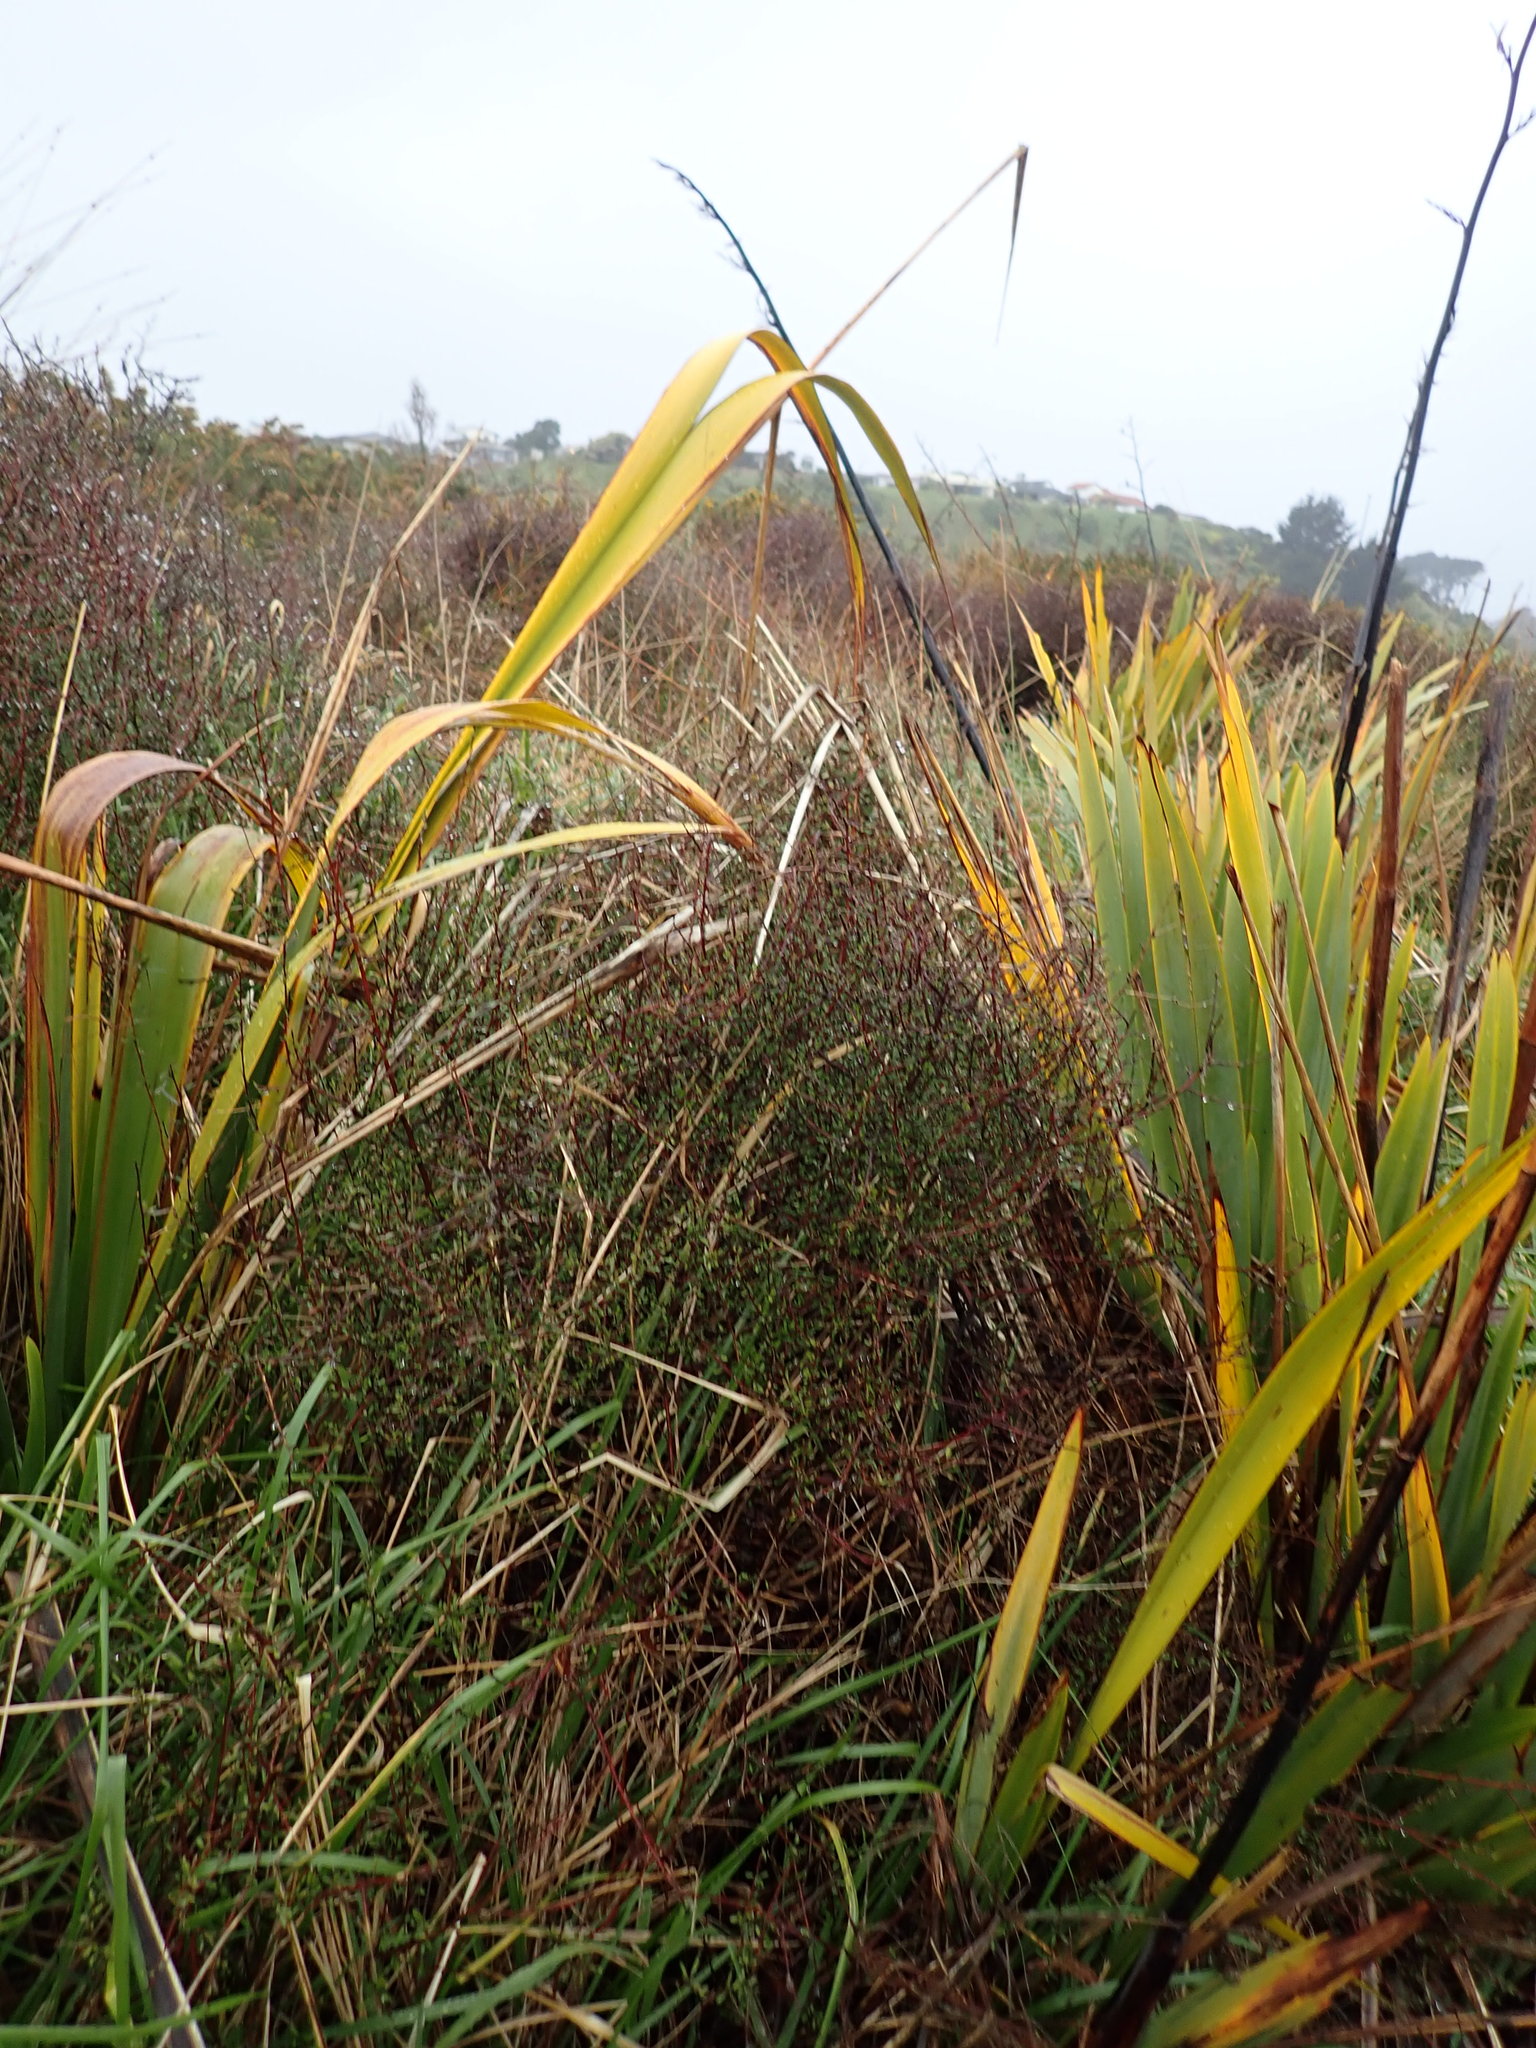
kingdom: Plantae
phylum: Tracheophyta
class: Magnoliopsida
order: Malvales
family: Malvaceae
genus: Plagianthus
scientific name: Plagianthus divaricatus
